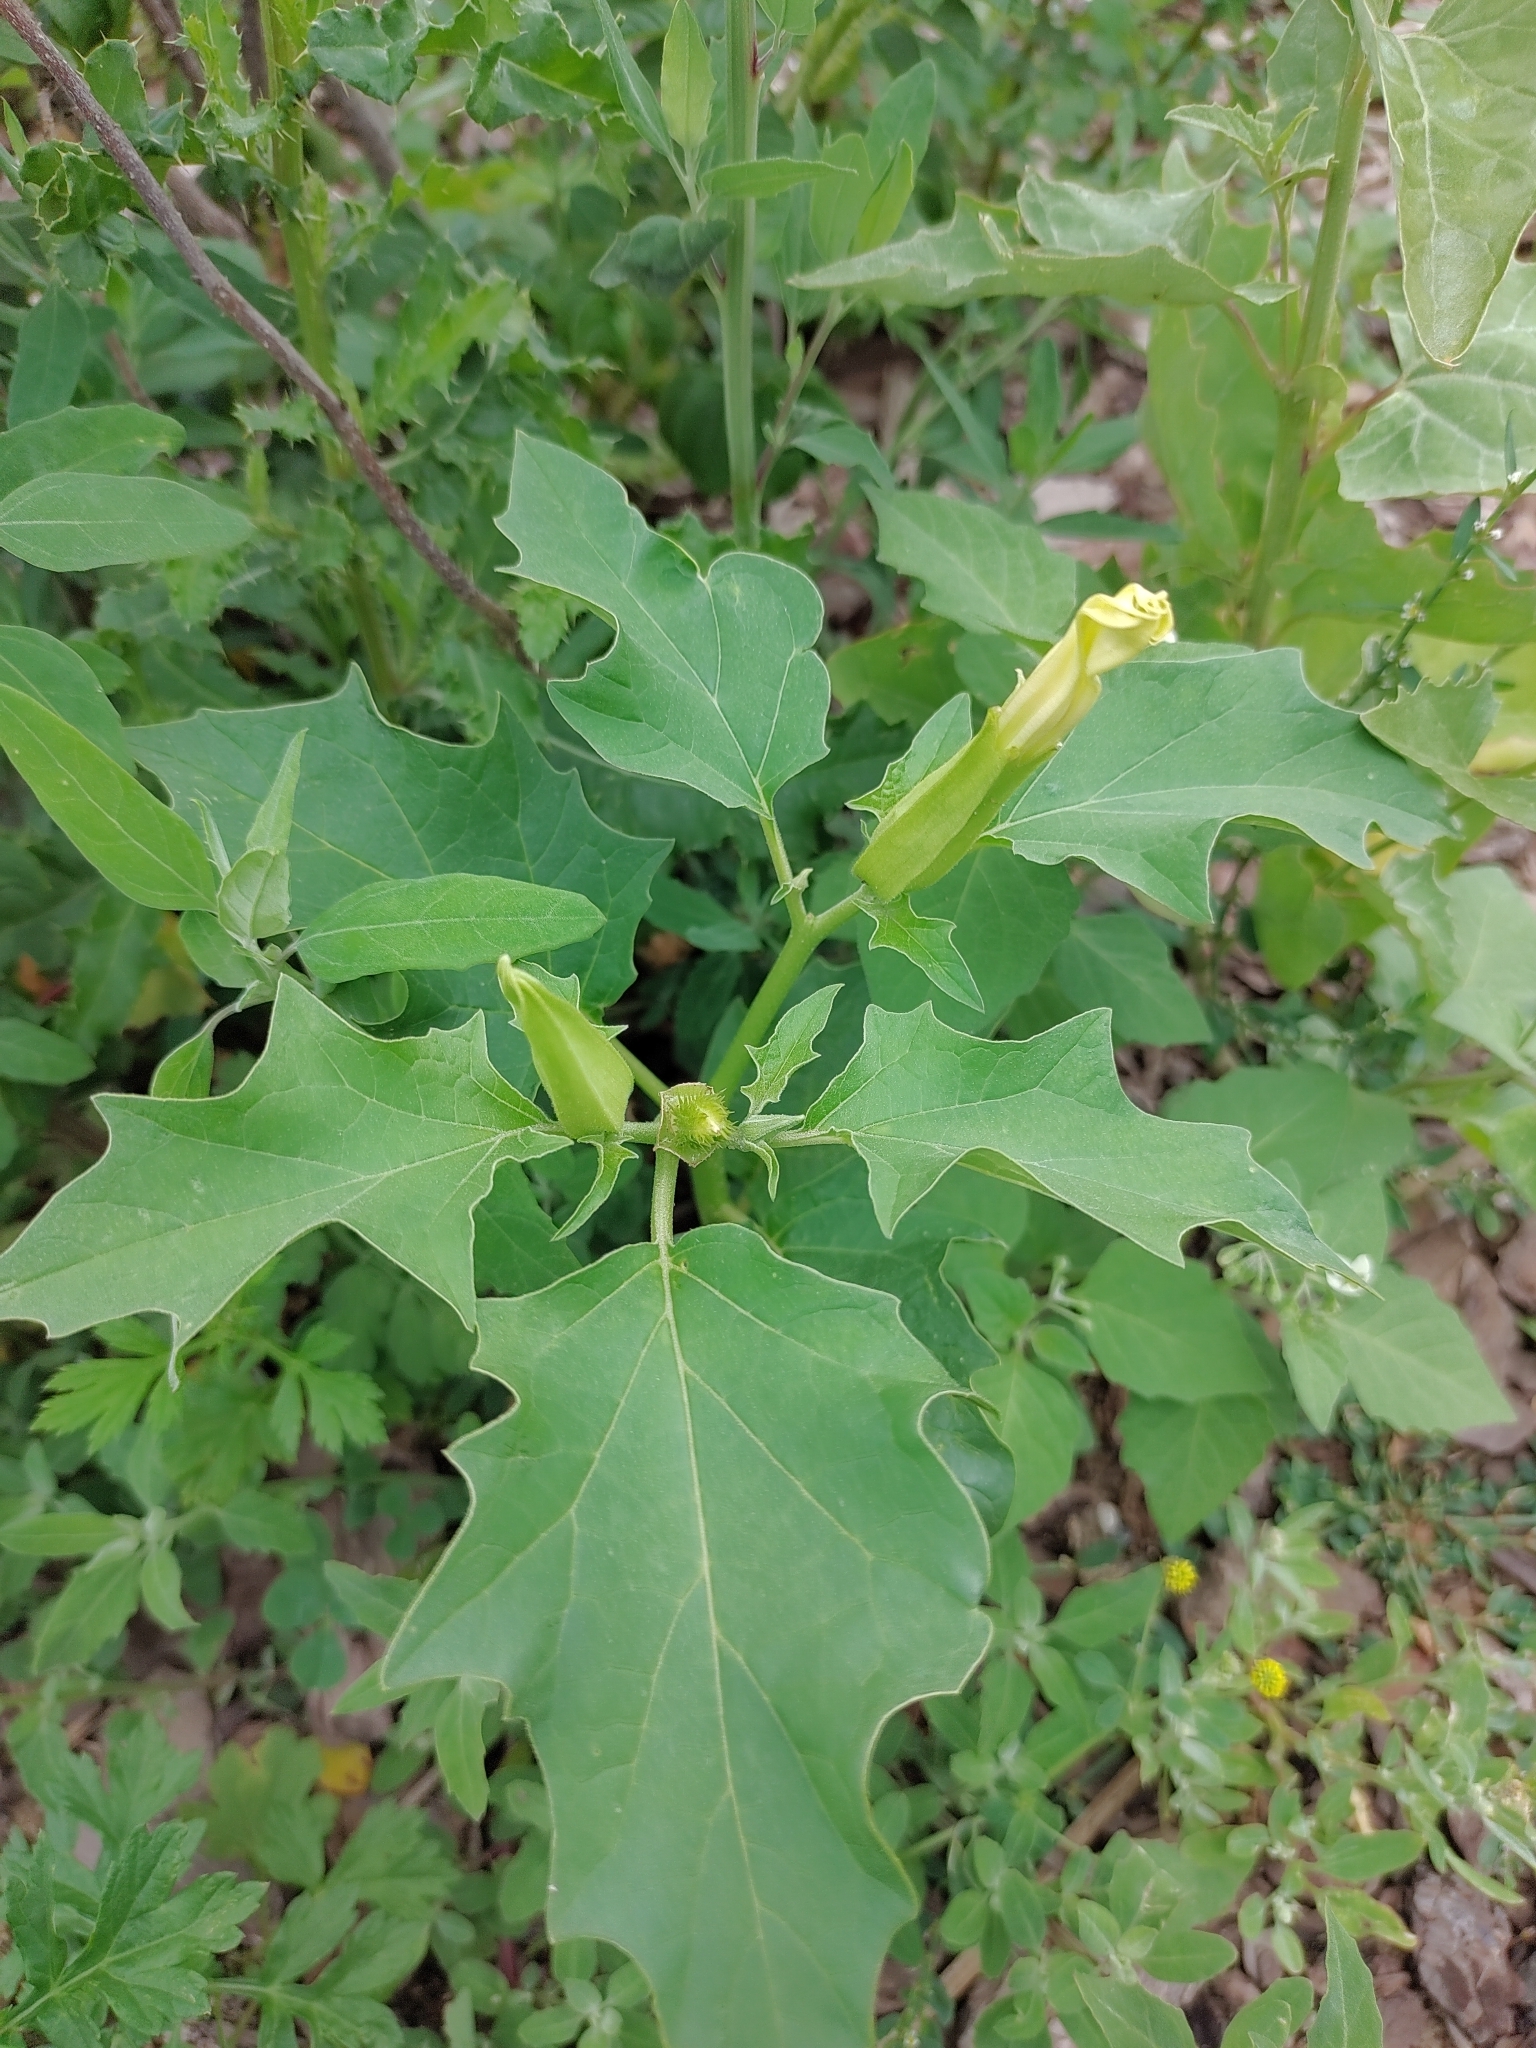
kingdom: Plantae
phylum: Tracheophyta
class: Magnoliopsida
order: Solanales
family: Solanaceae
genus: Datura
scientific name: Datura stramonium
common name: Thorn-apple
